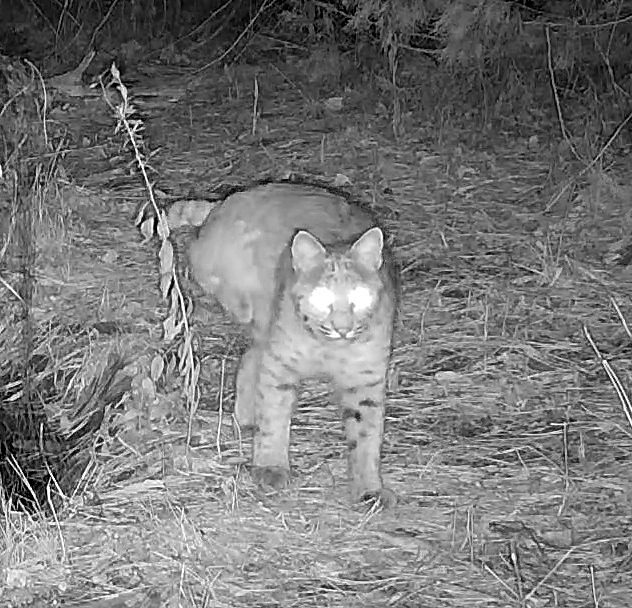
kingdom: Animalia
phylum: Chordata
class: Mammalia
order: Carnivora
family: Felidae
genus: Lynx
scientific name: Lynx rufus
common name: Bobcat
